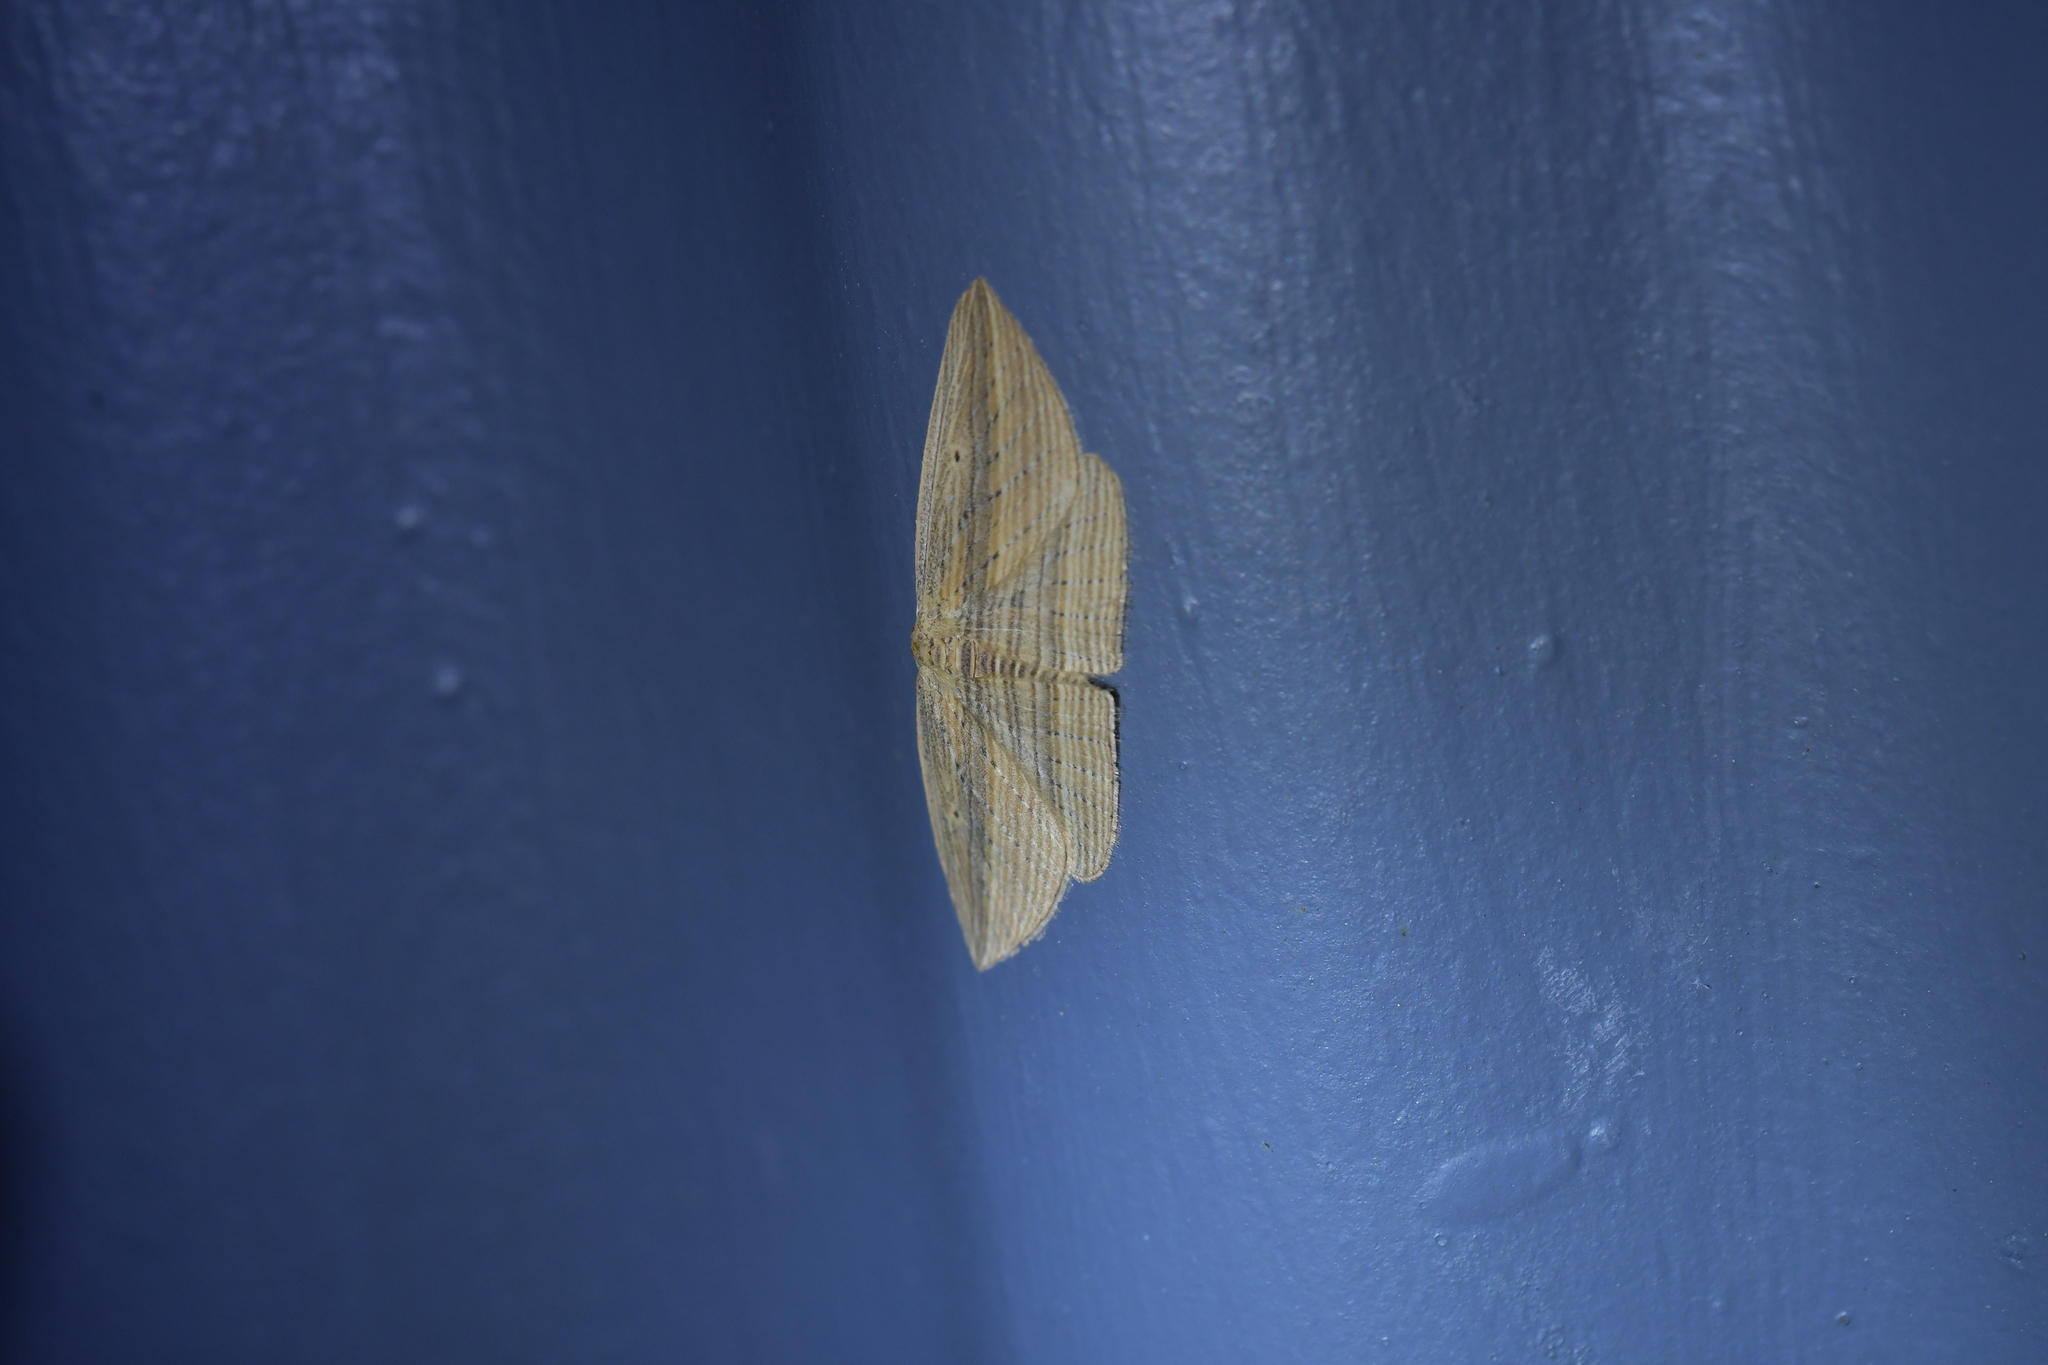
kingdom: Animalia
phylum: Arthropoda
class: Insecta
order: Lepidoptera
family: Geometridae
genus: Epiphryne
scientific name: Epiphryne verriculata
